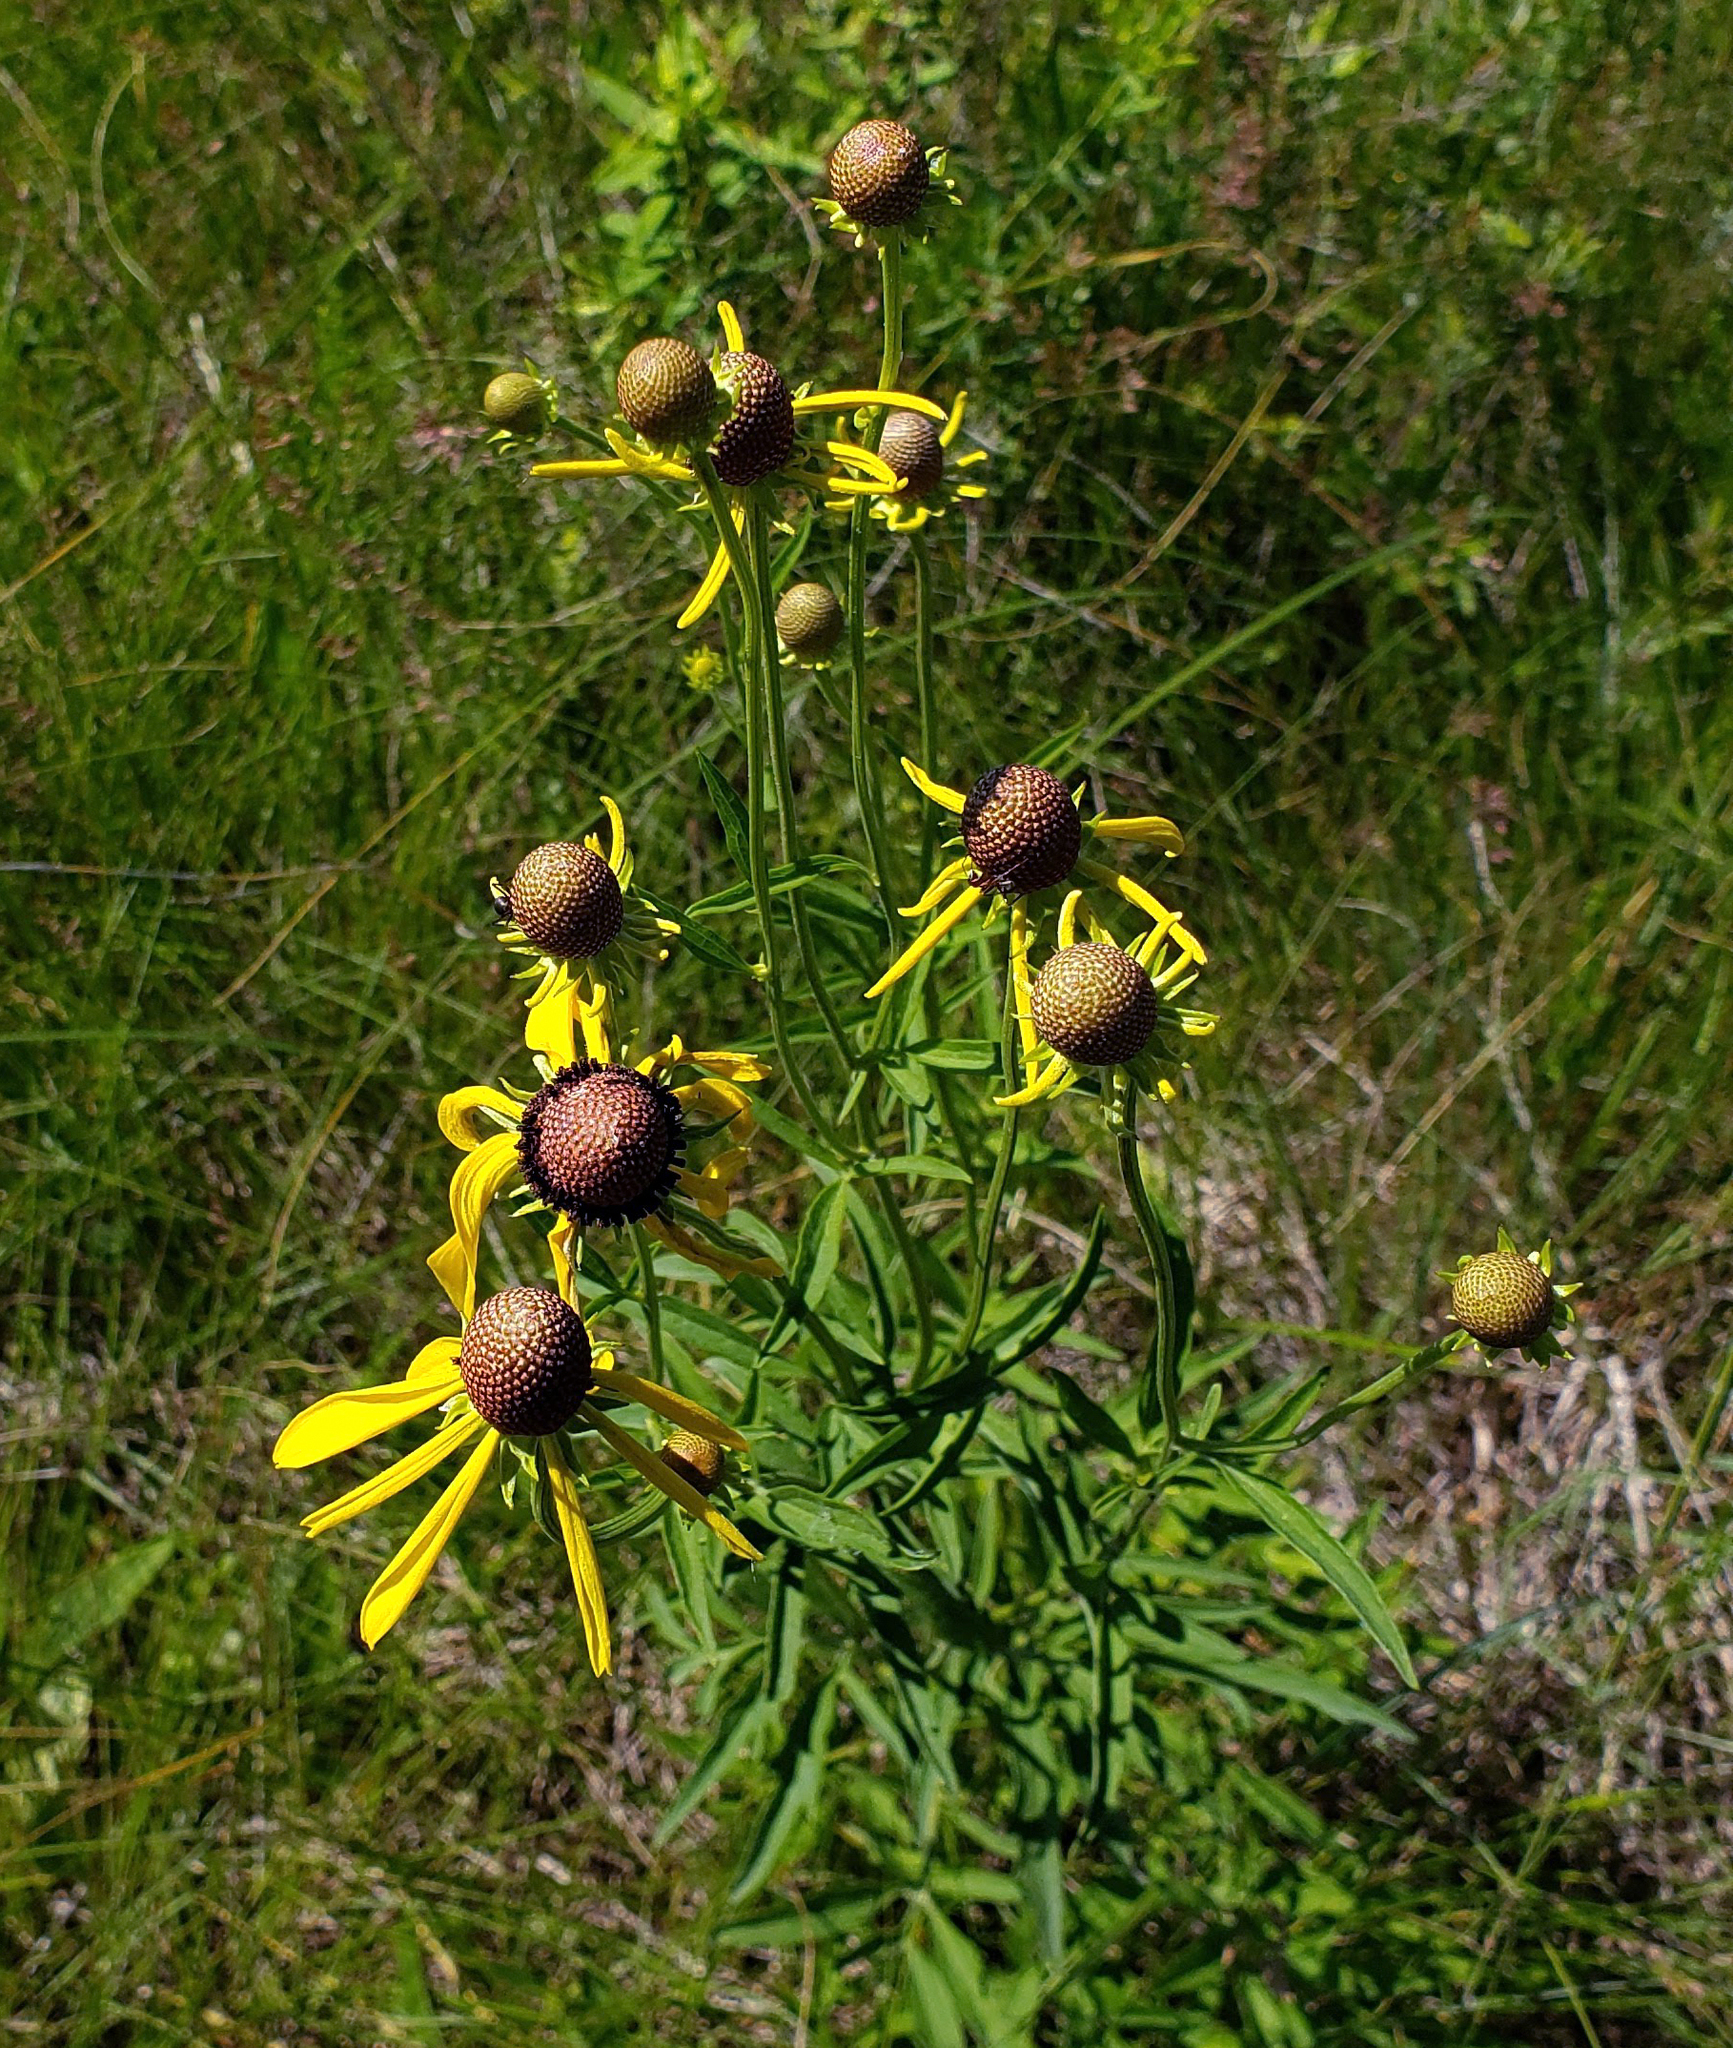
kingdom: Plantae
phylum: Tracheophyta
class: Magnoliopsida
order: Asterales
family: Asteraceae
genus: Ratibida
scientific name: Ratibida pinnata
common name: Drooping prairie-coneflower
